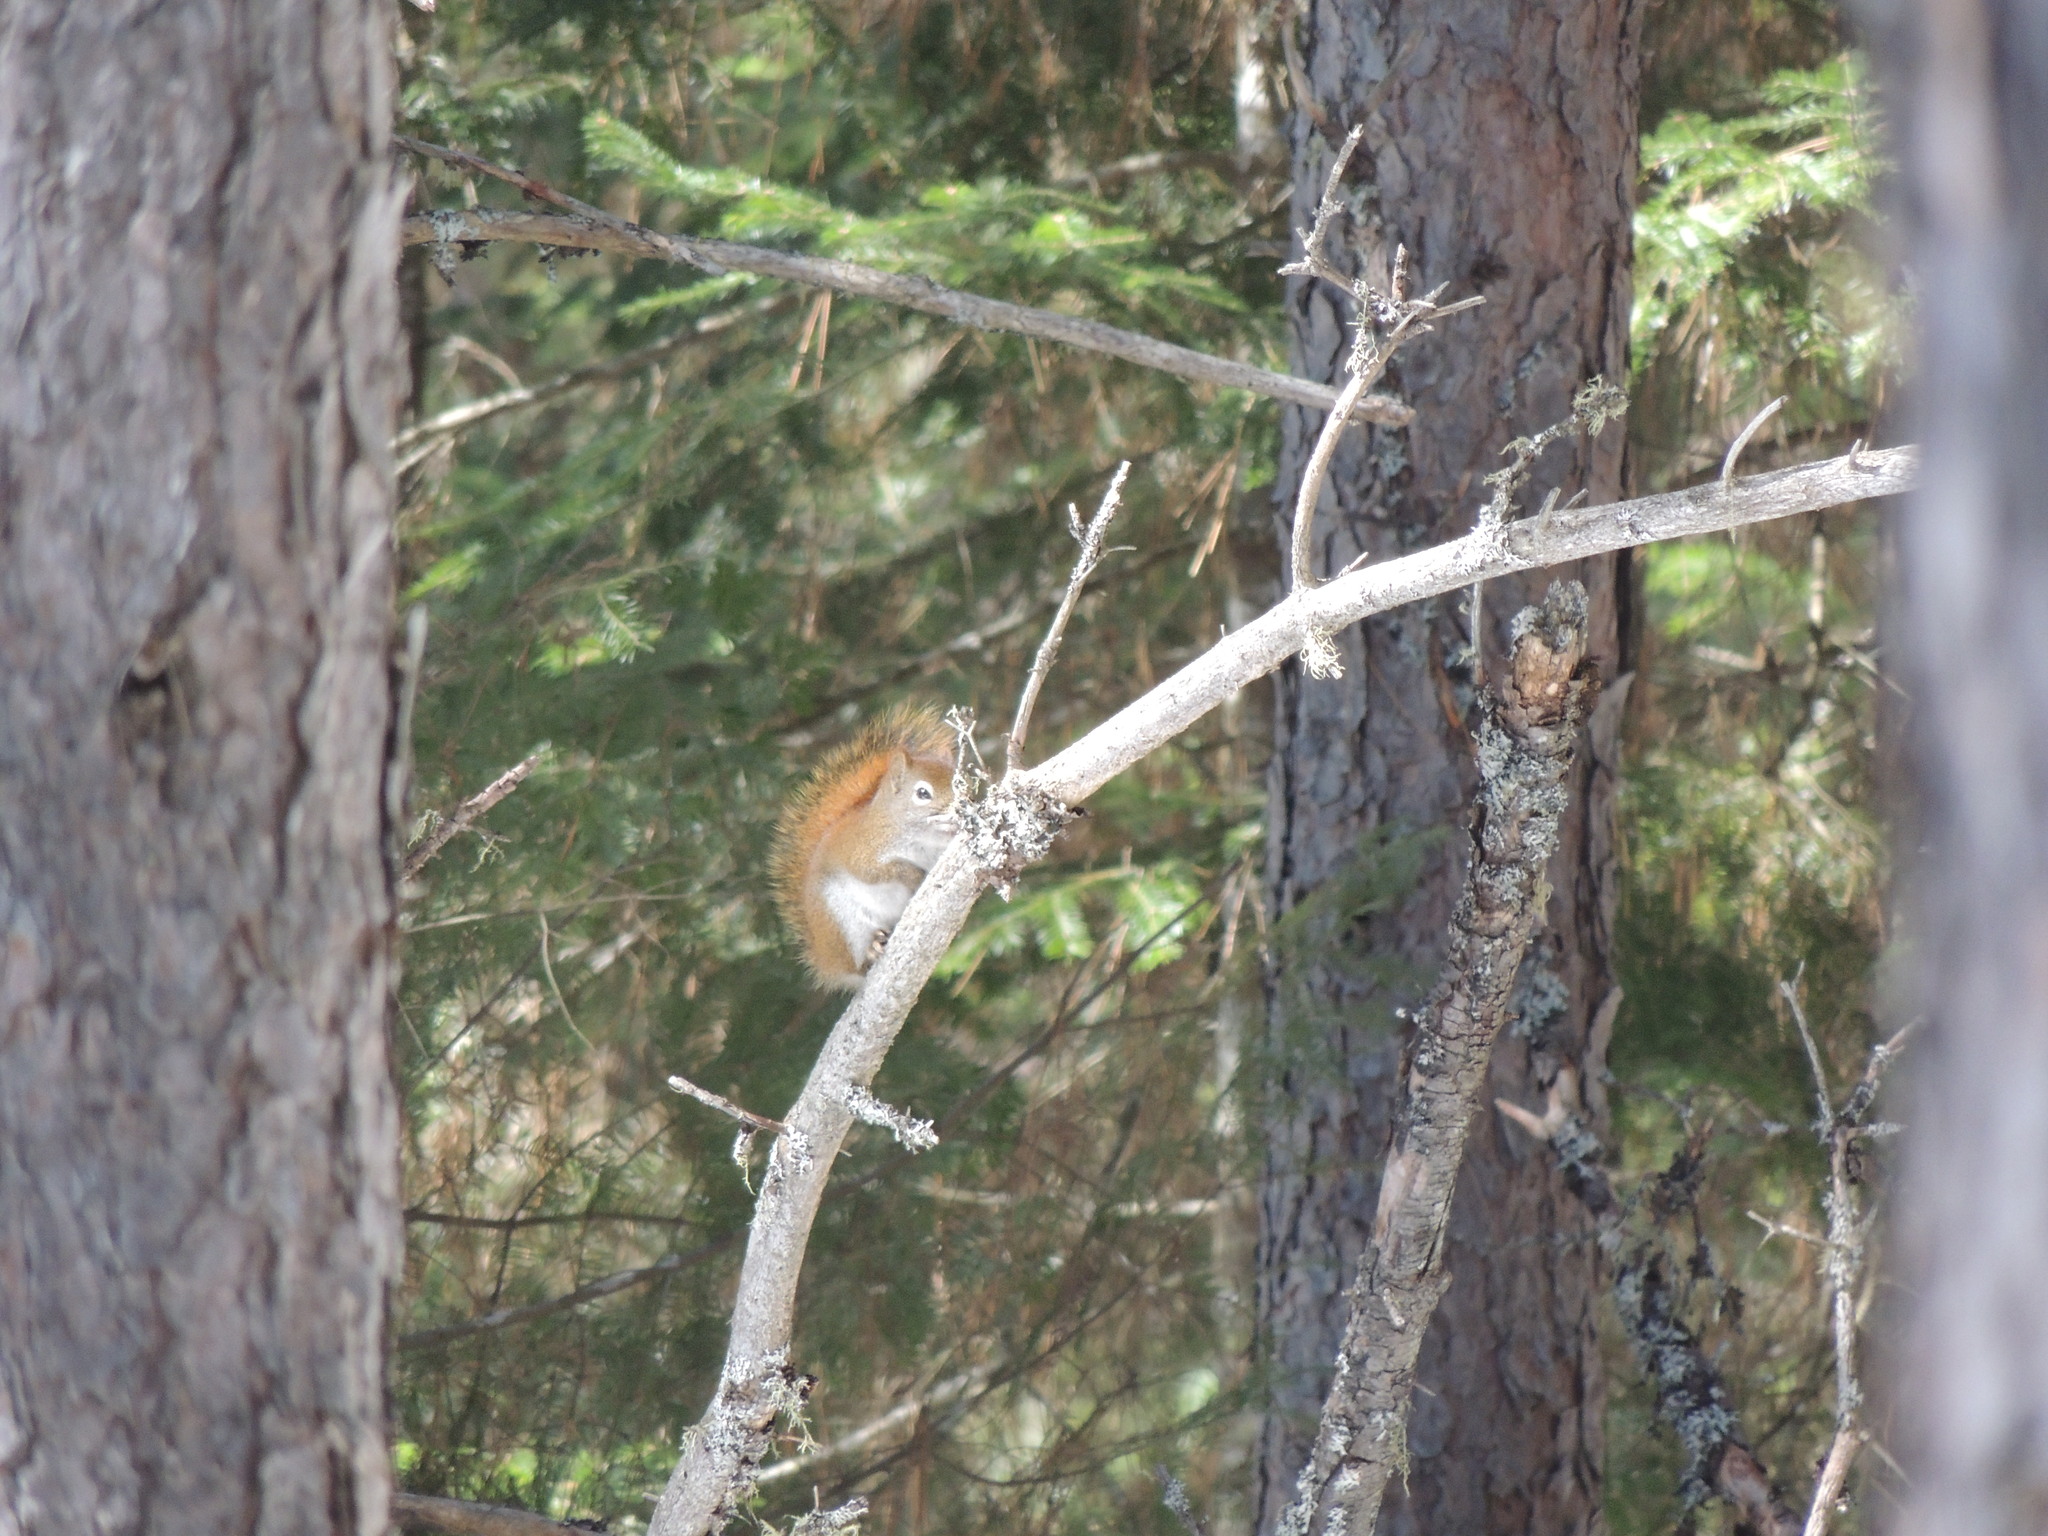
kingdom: Animalia
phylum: Chordata
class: Mammalia
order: Rodentia
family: Sciuridae
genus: Tamiasciurus
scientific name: Tamiasciurus hudsonicus
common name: Red squirrel
